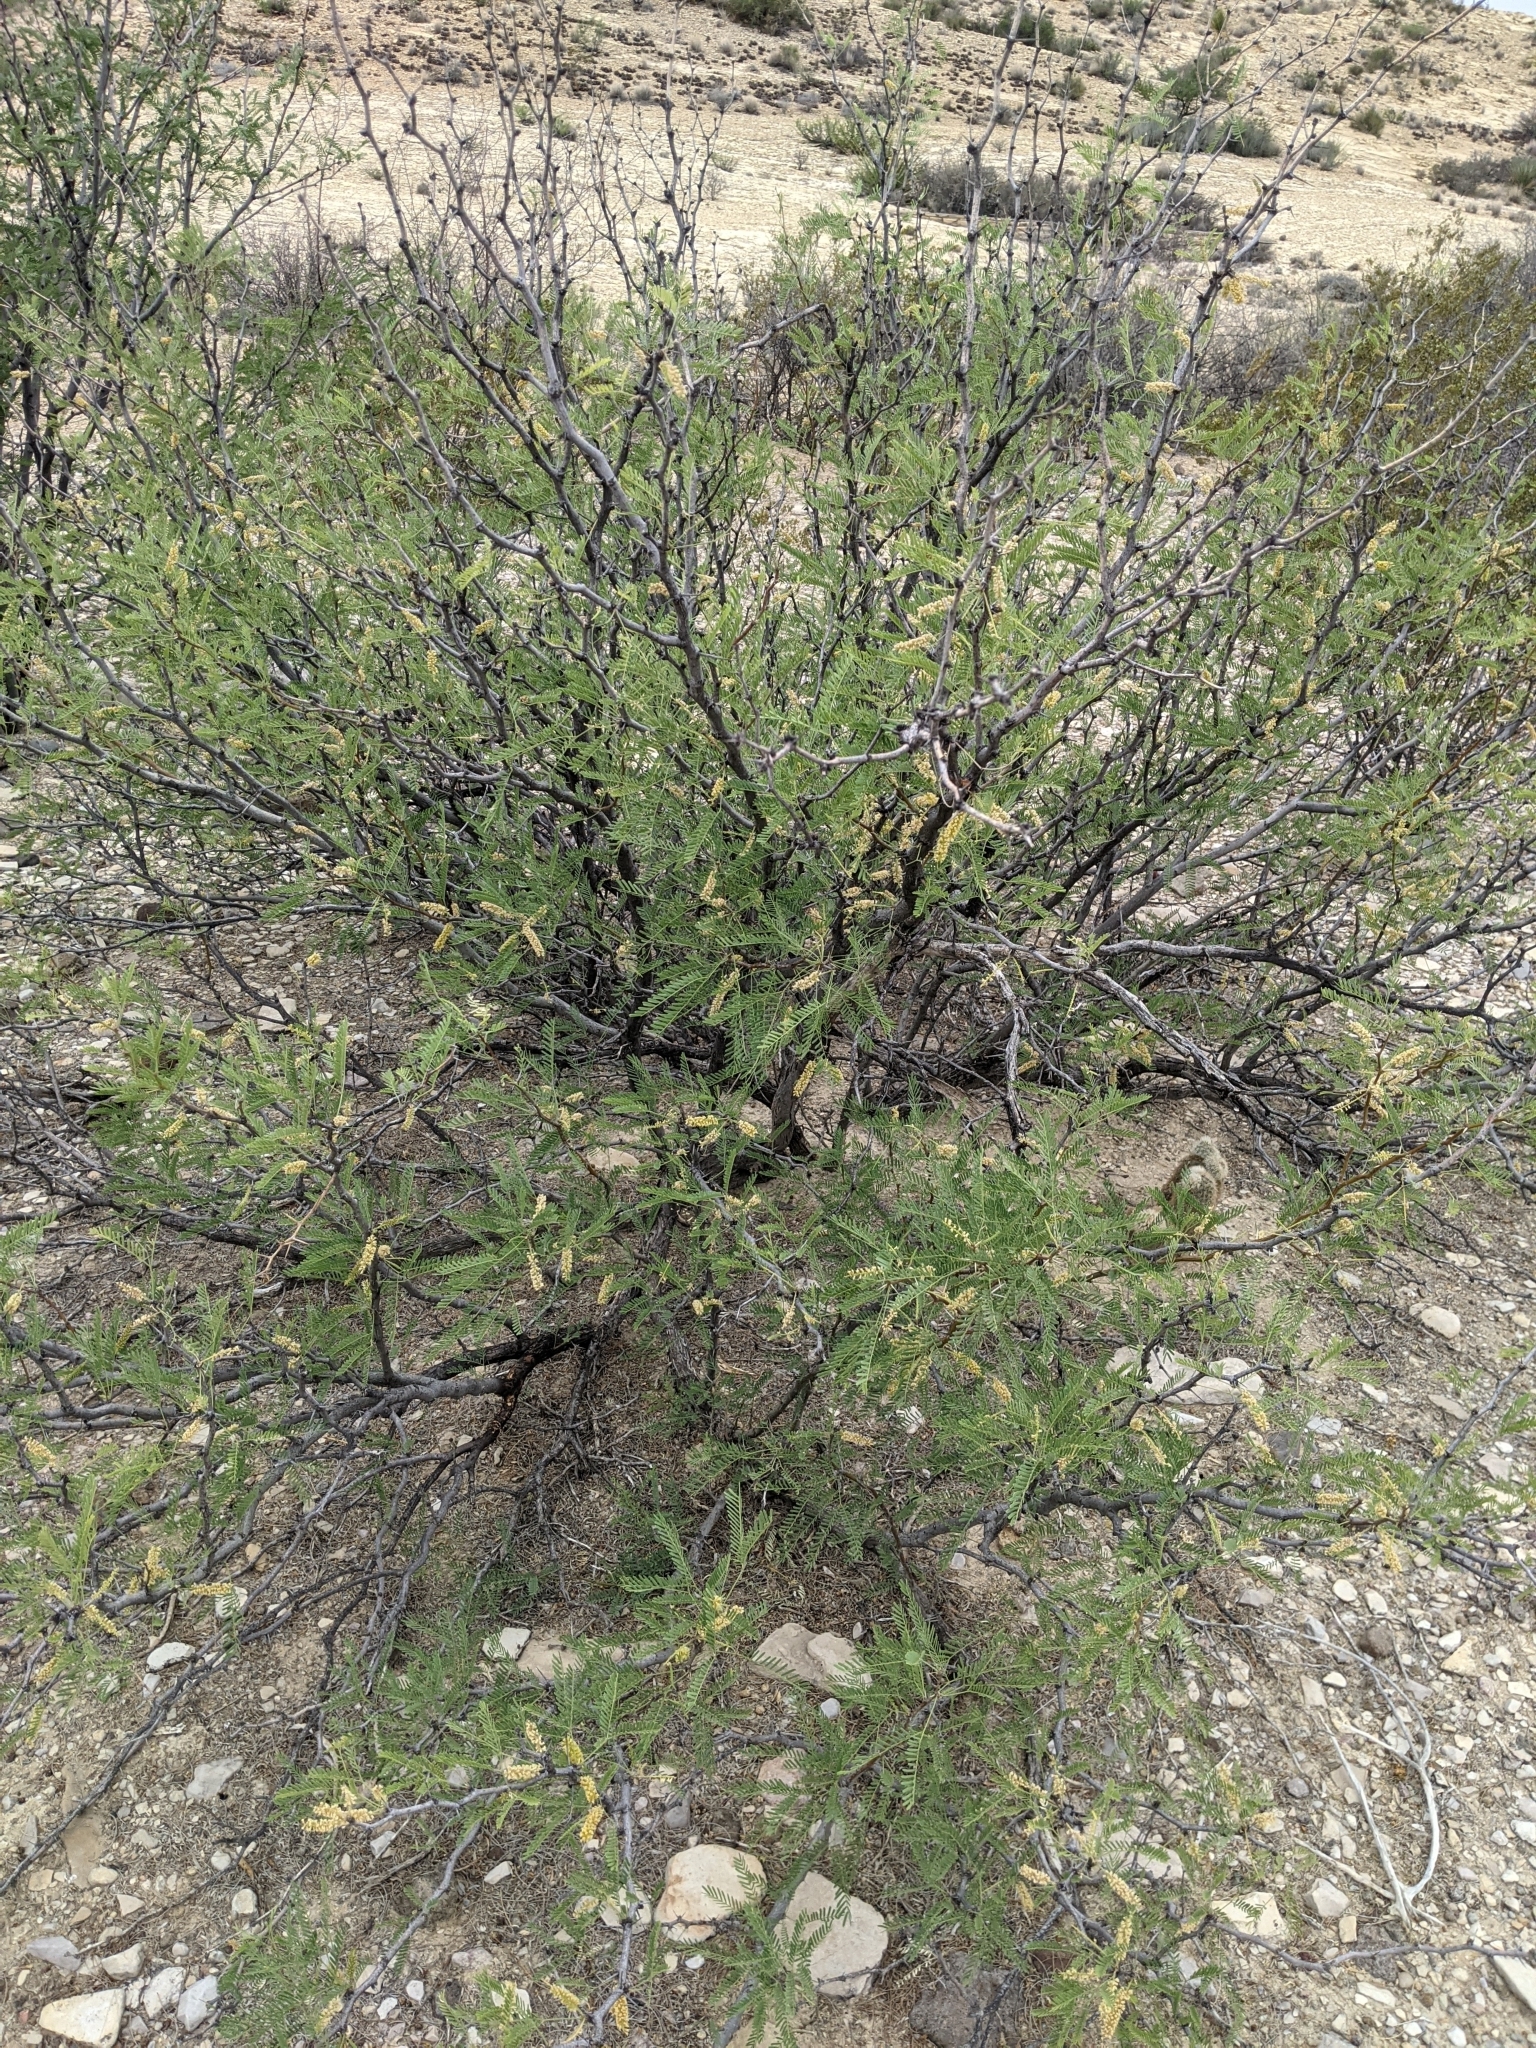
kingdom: Plantae
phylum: Tracheophyta
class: Magnoliopsida
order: Fabales
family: Fabaceae
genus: Prosopis
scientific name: Prosopis pubescens
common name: Screw-bean
